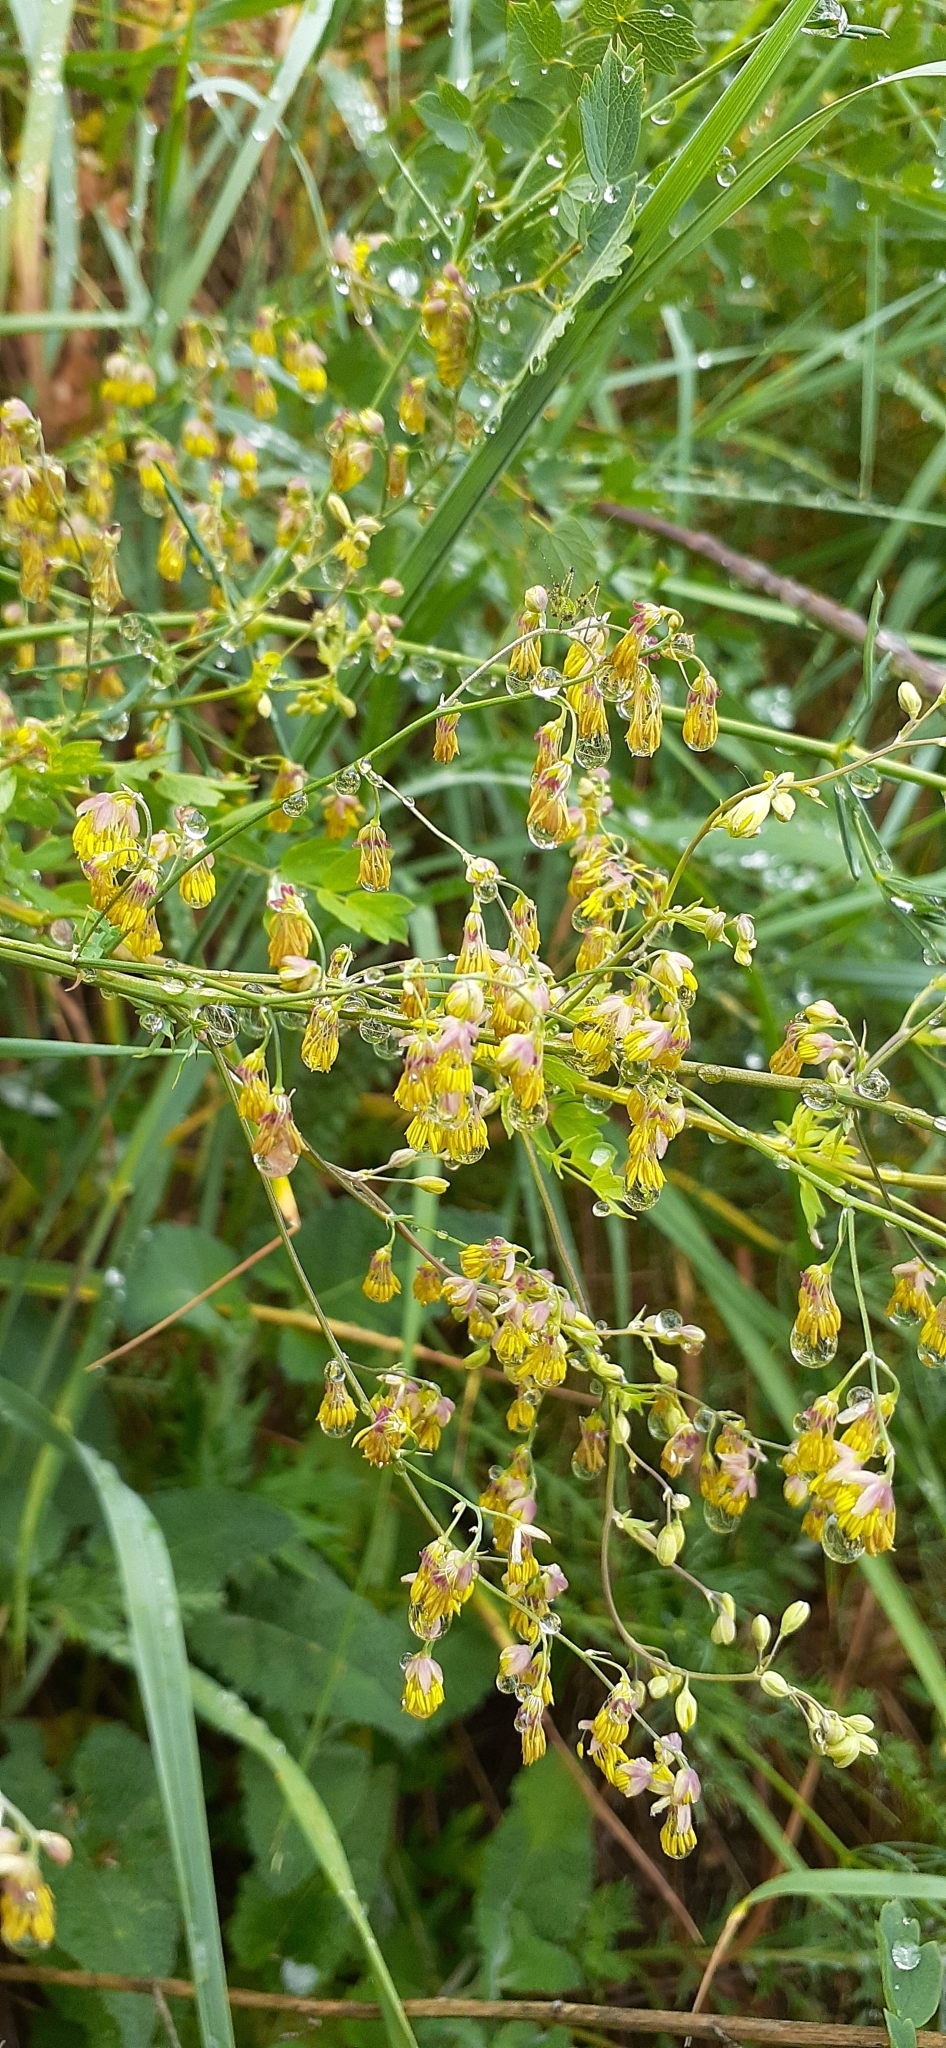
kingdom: Plantae
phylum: Tracheophyta
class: Magnoliopsida
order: Ranunculales
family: Ranunculaceae
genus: Thalictrum
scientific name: Thalictrum minus
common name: Lesser meadow-rue
